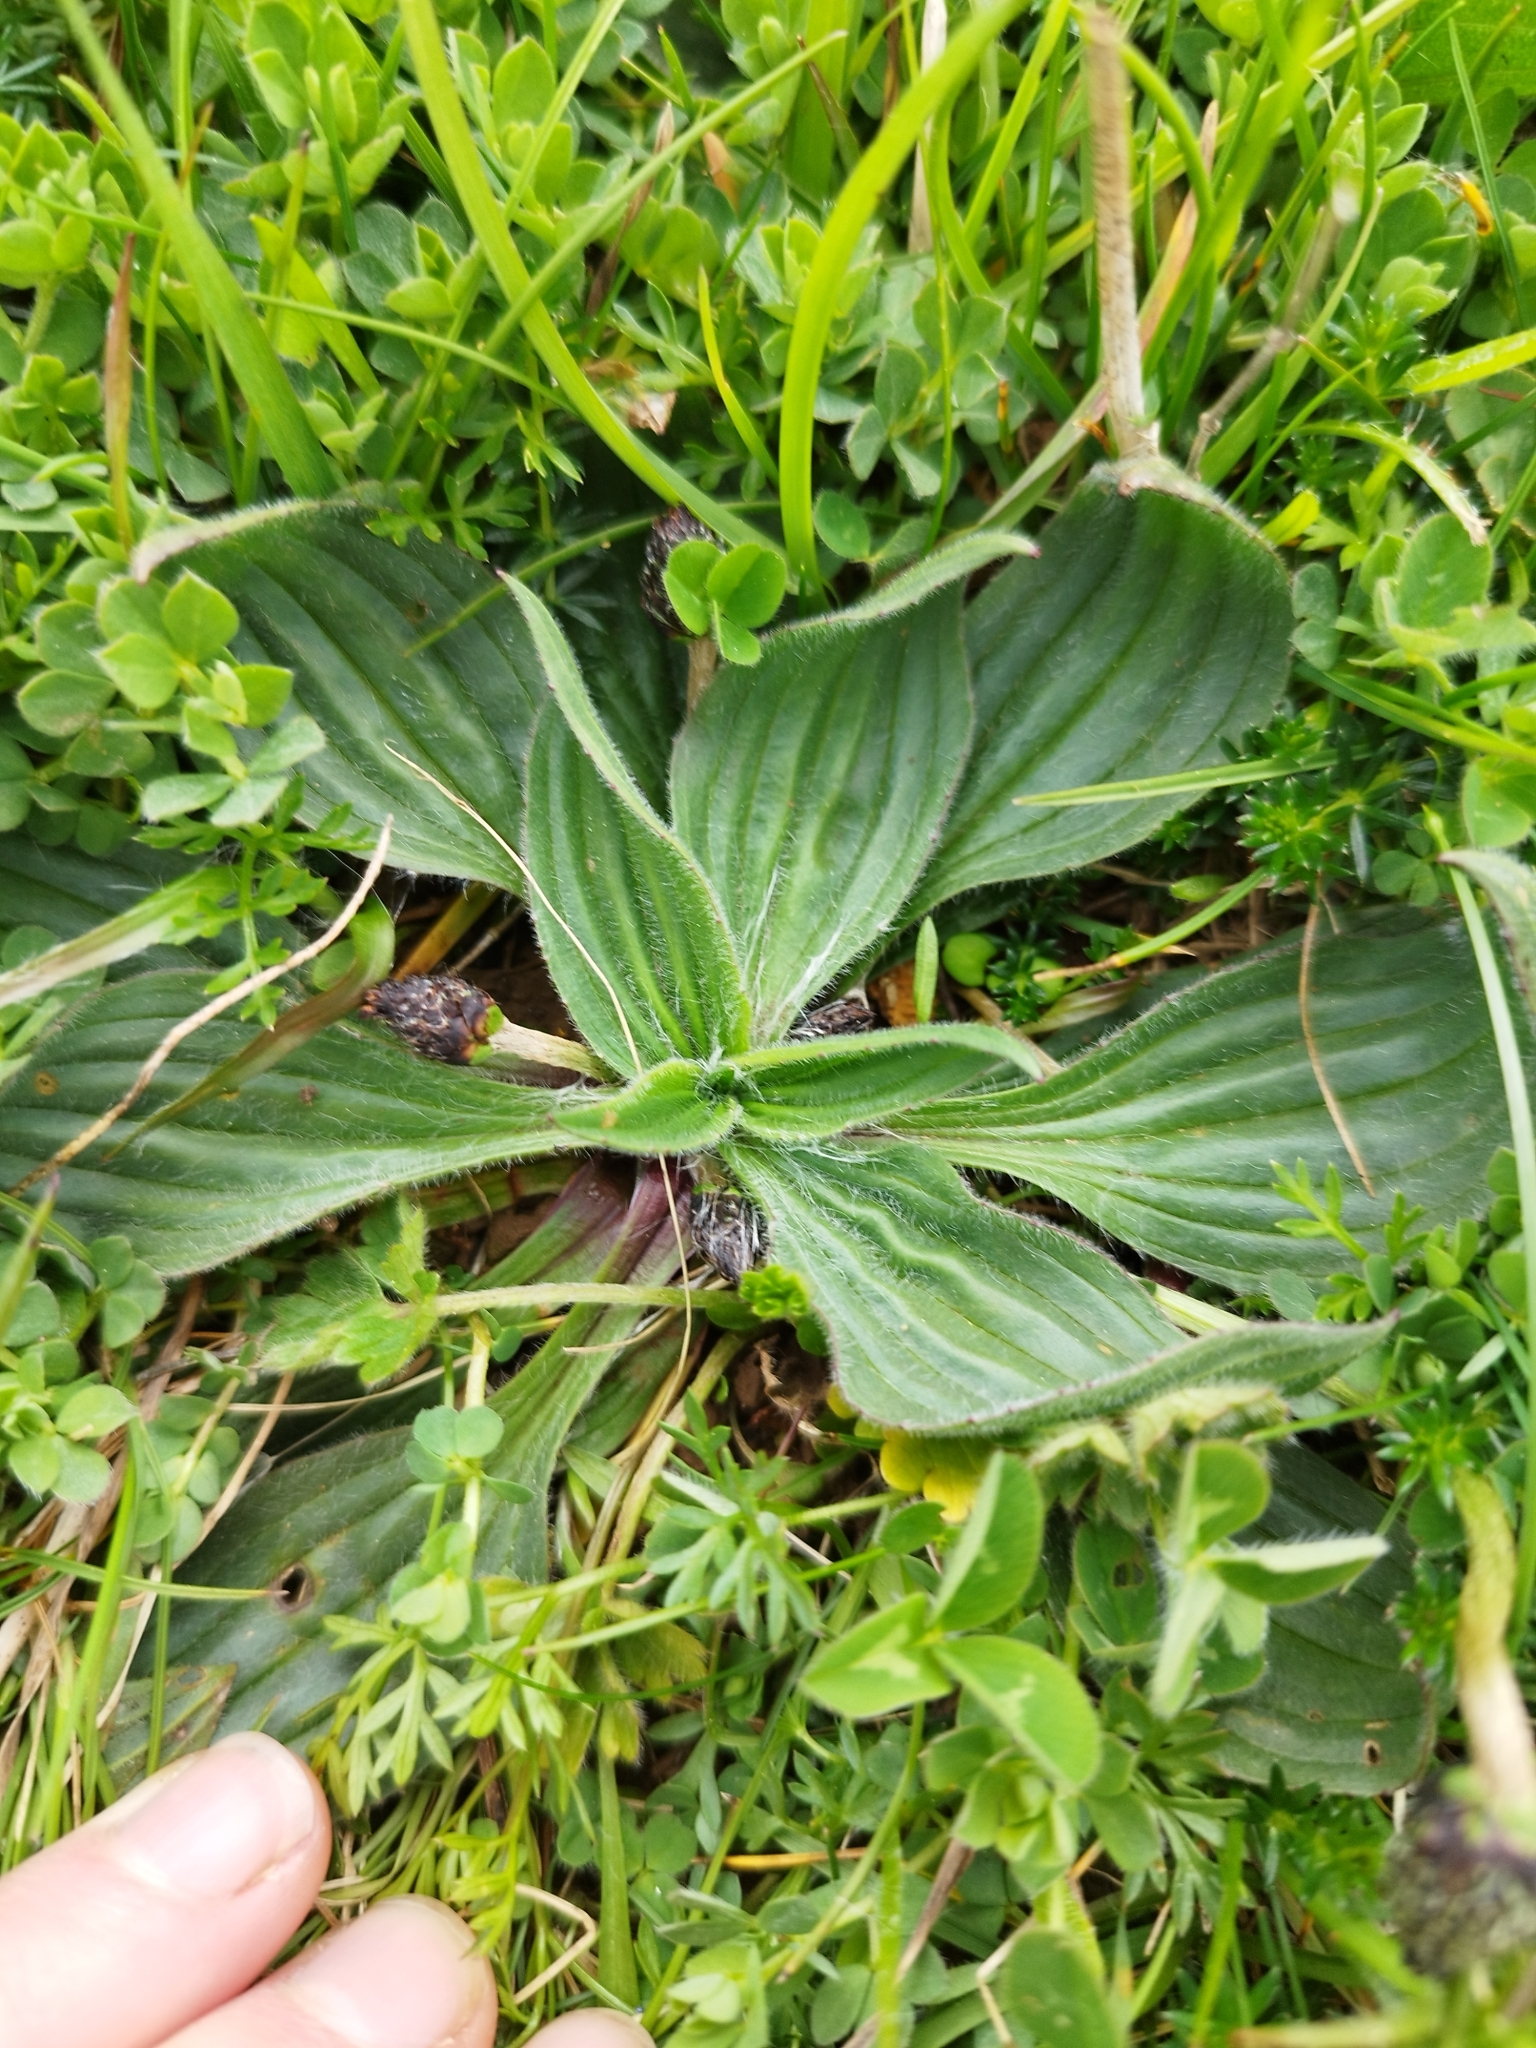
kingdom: Plantae
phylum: Tracheophyta
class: Magnoliopsida
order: Lamiales
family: Plantaginaceae
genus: Plantago
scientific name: Plantago media
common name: Hoary plantain
